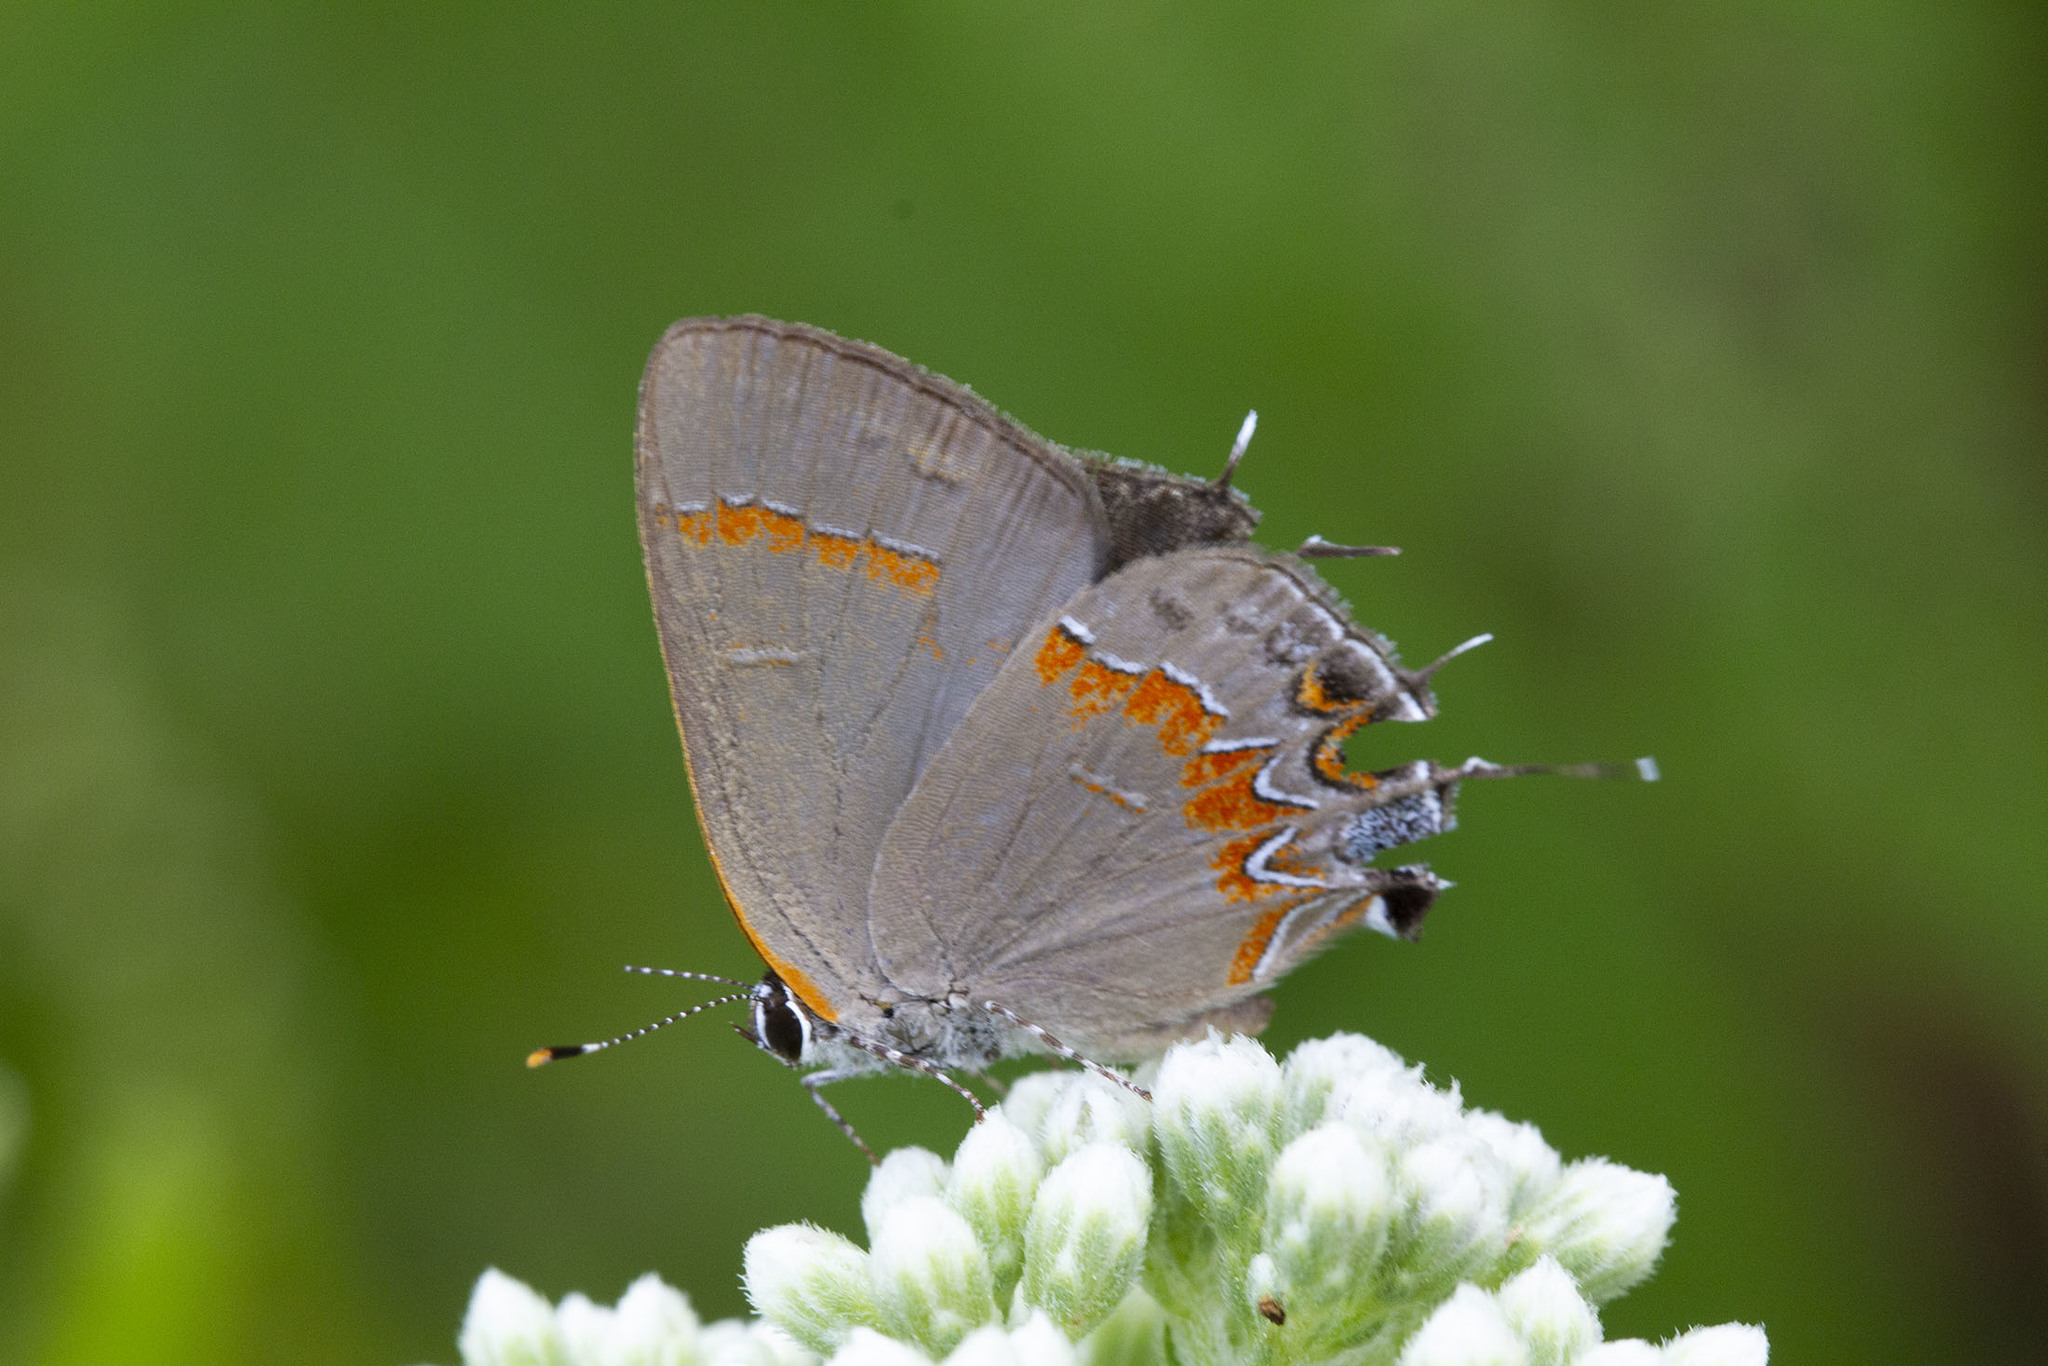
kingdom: Animalia
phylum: Arthropoda
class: Insecta
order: Lepidoptera
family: Lycaenidae
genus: Calycopis
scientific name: Calycopis cecrops
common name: Red-banded hairstreak
